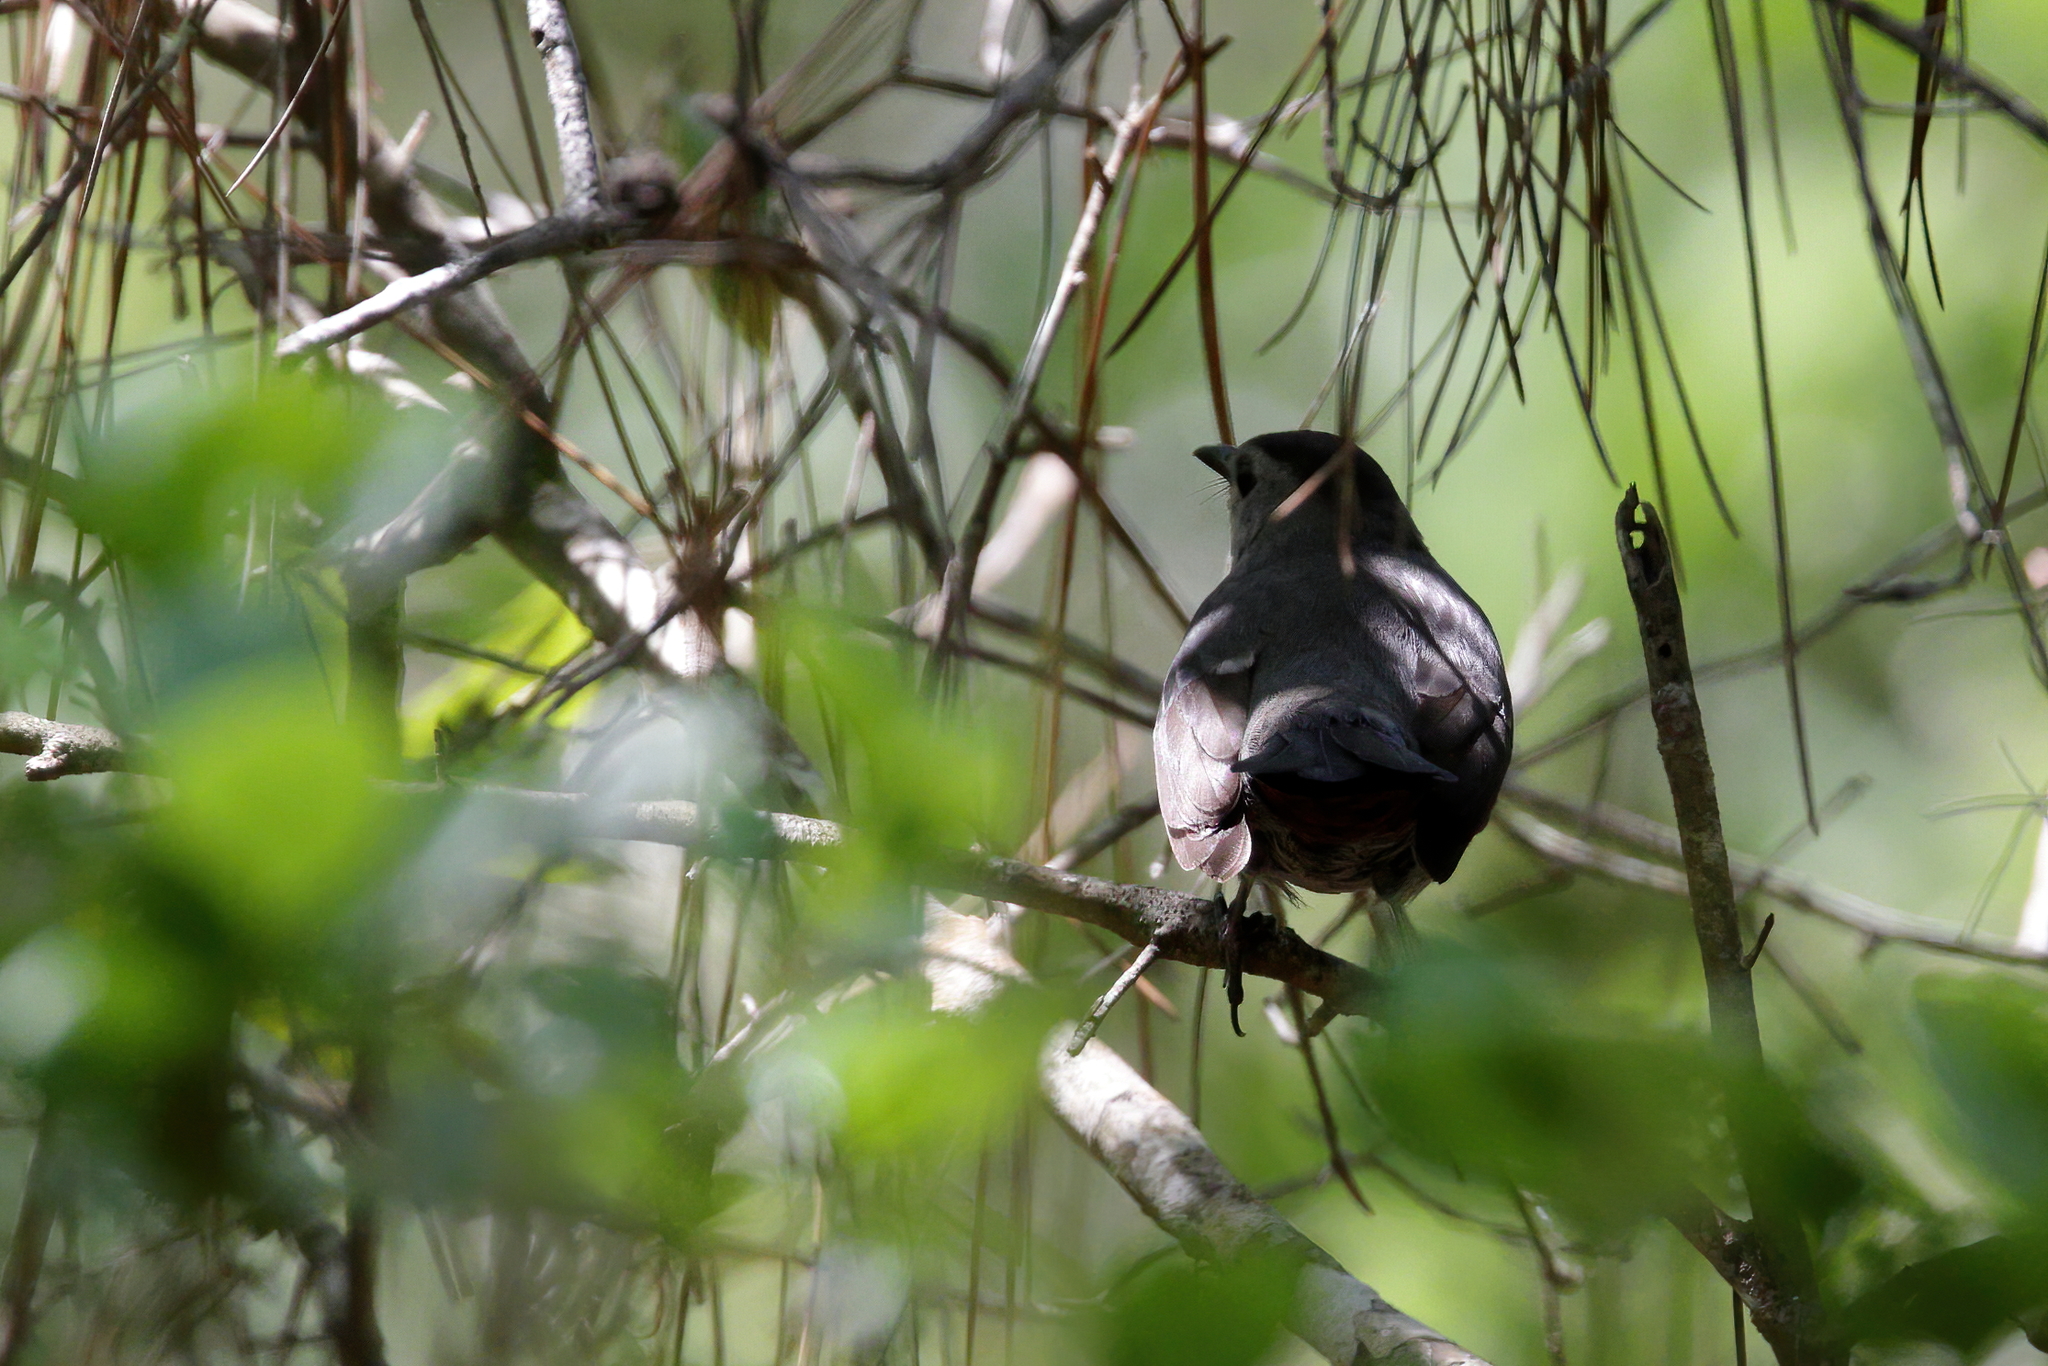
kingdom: Animalia
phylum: Chordata
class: Aves
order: Passeriformes
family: Mimidae
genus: Dumetella
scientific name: Dumetella carolinensis
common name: Gray catbird
